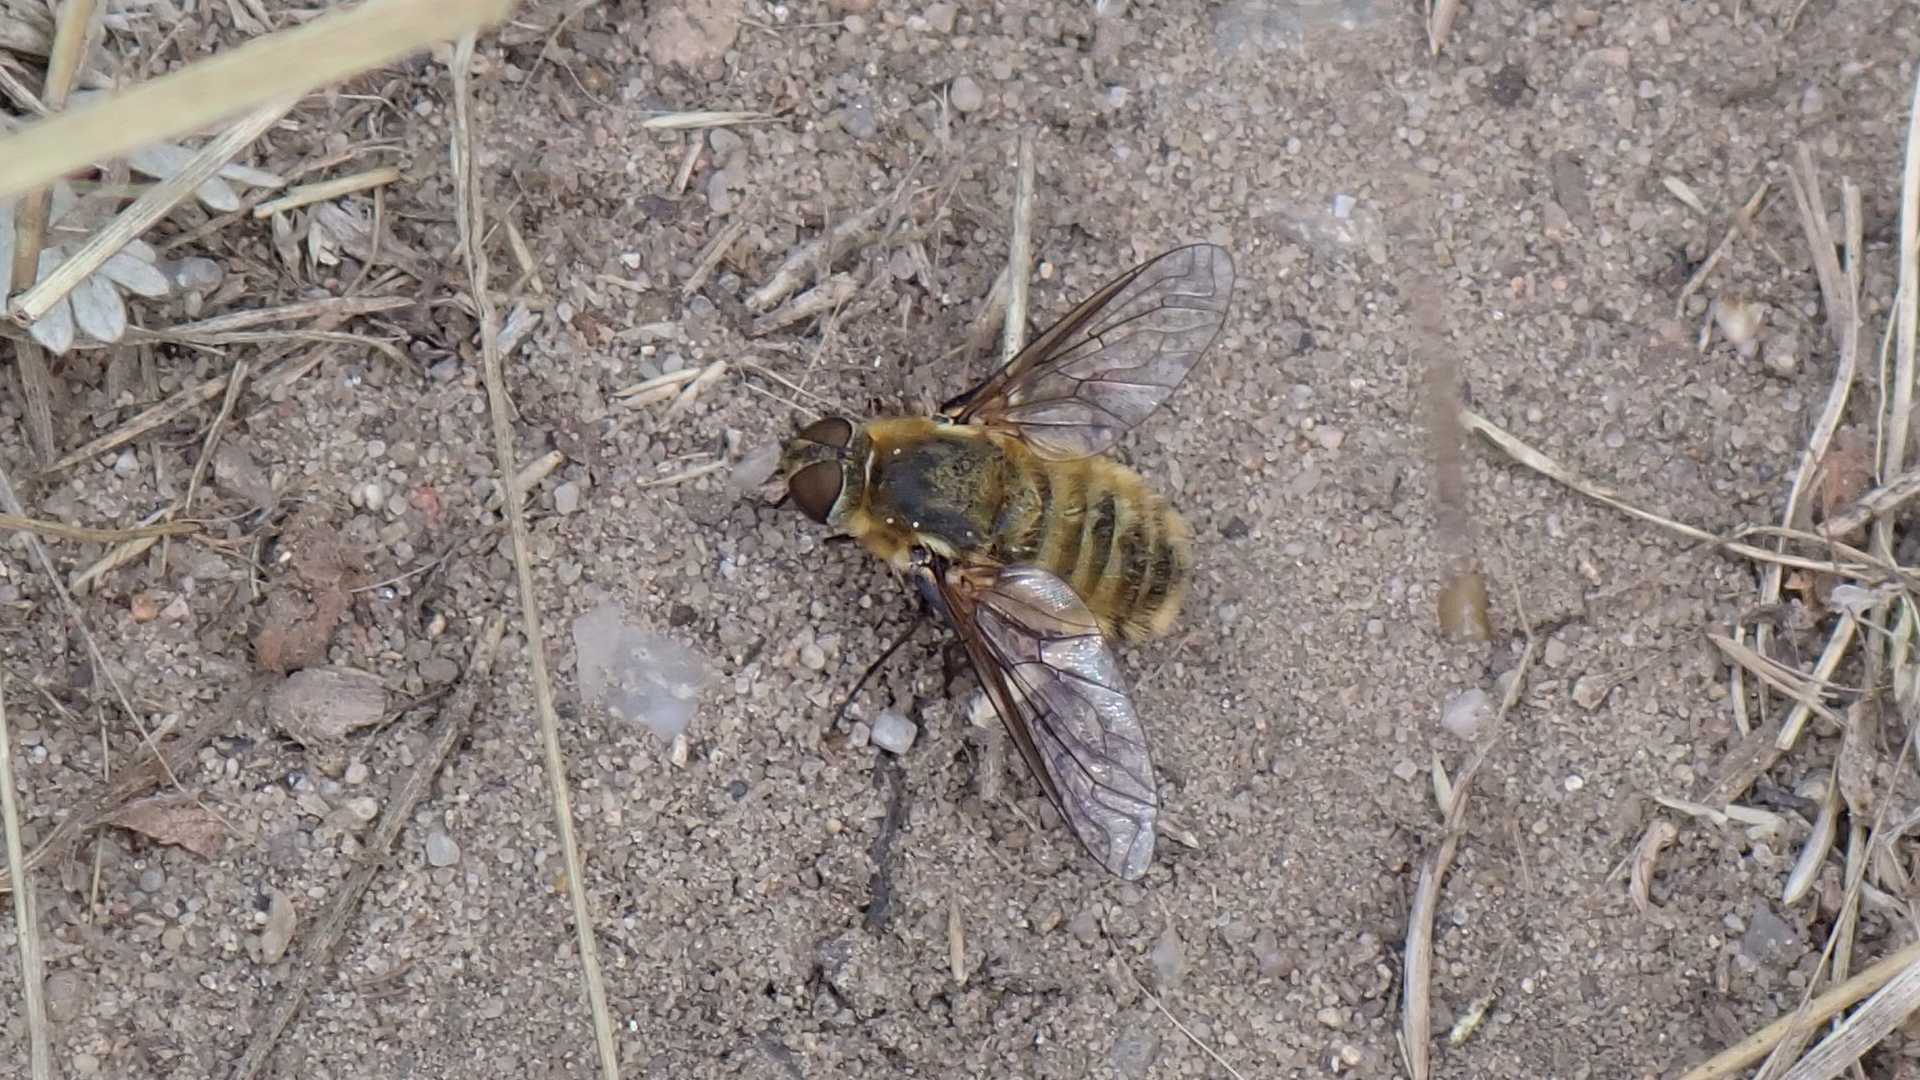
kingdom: Animalia
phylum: Arthropoda
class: Insecta
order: Diptera
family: Bombyliidae
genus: Villa
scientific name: Villa hottentotta
